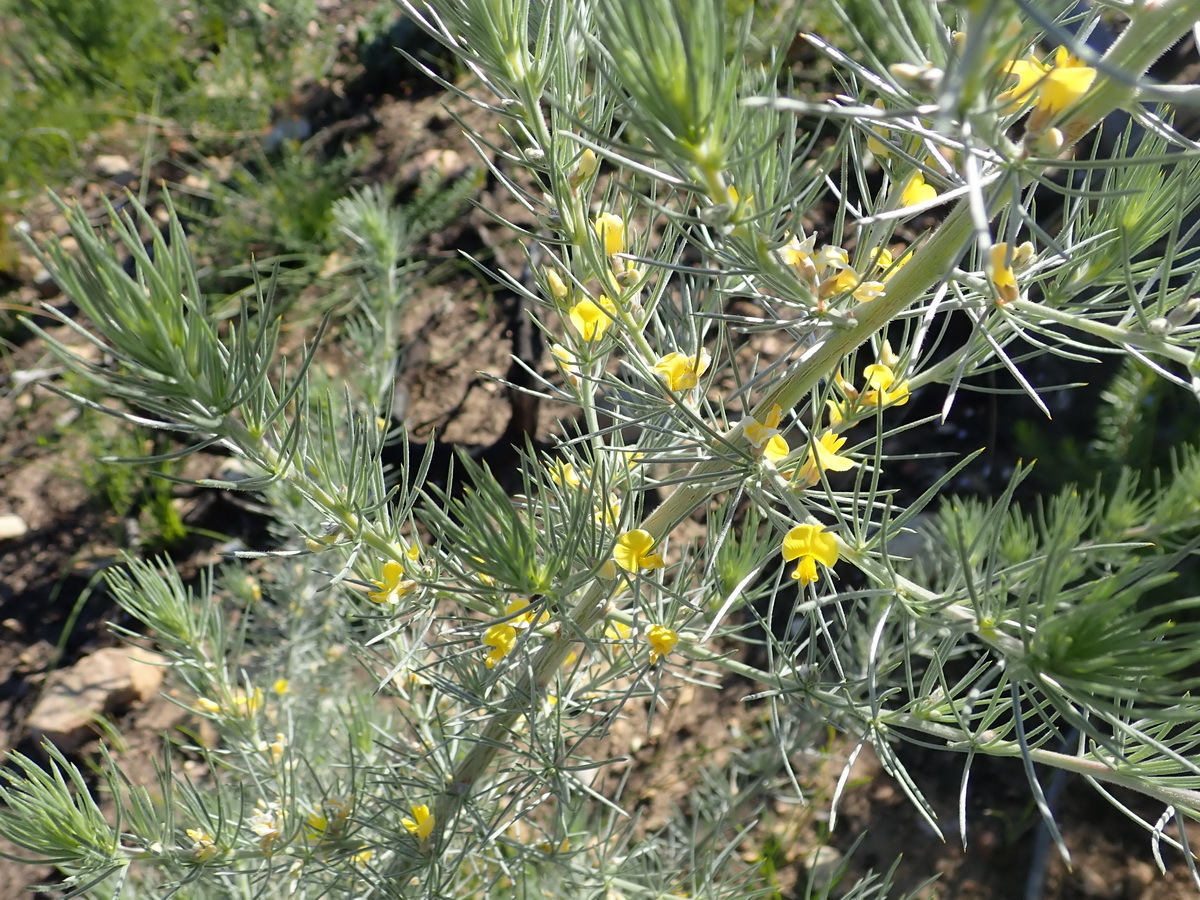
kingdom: Plantae
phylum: Tracheophyta
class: Magnoliopsida
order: Fabales
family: Fabaceae
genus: Aspalathus
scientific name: Aspalathus florifera
